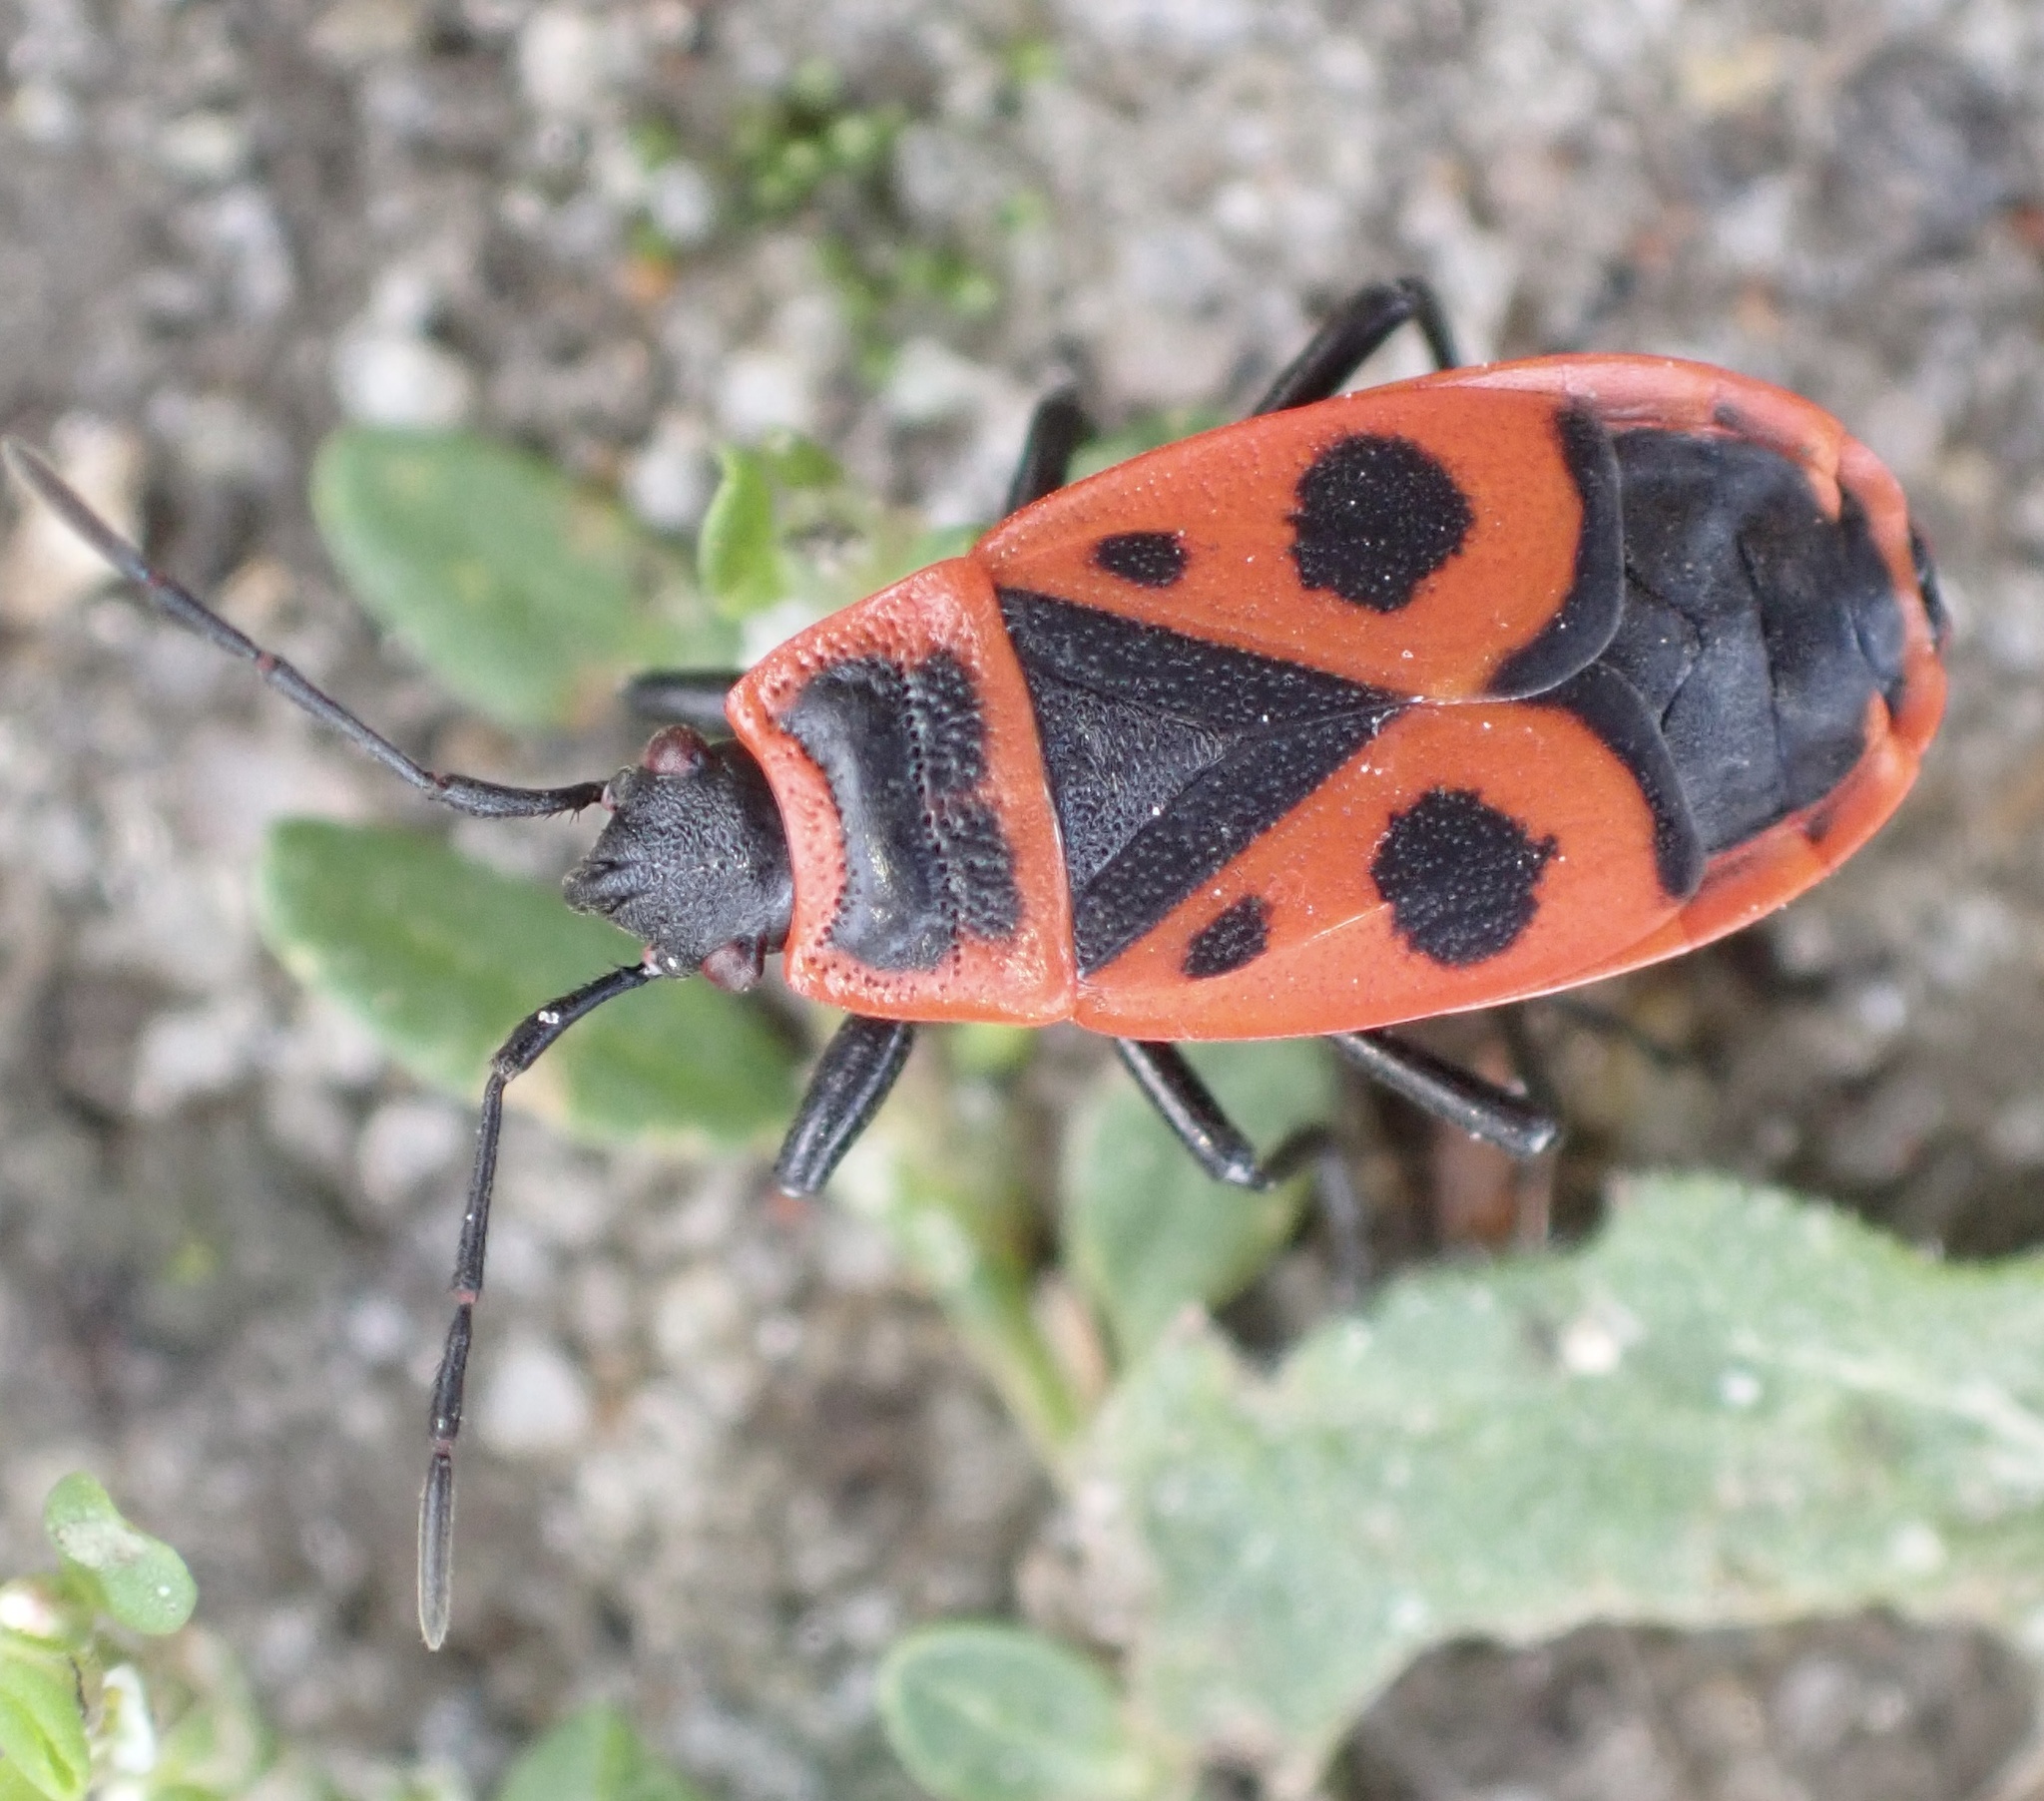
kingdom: Animalia
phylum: Arthropoda
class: Insecta
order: Hemiptera
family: Pyrrhocoridae
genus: Pyrrhocoris
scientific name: Pyrrhocoris apterus
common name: Firebug
